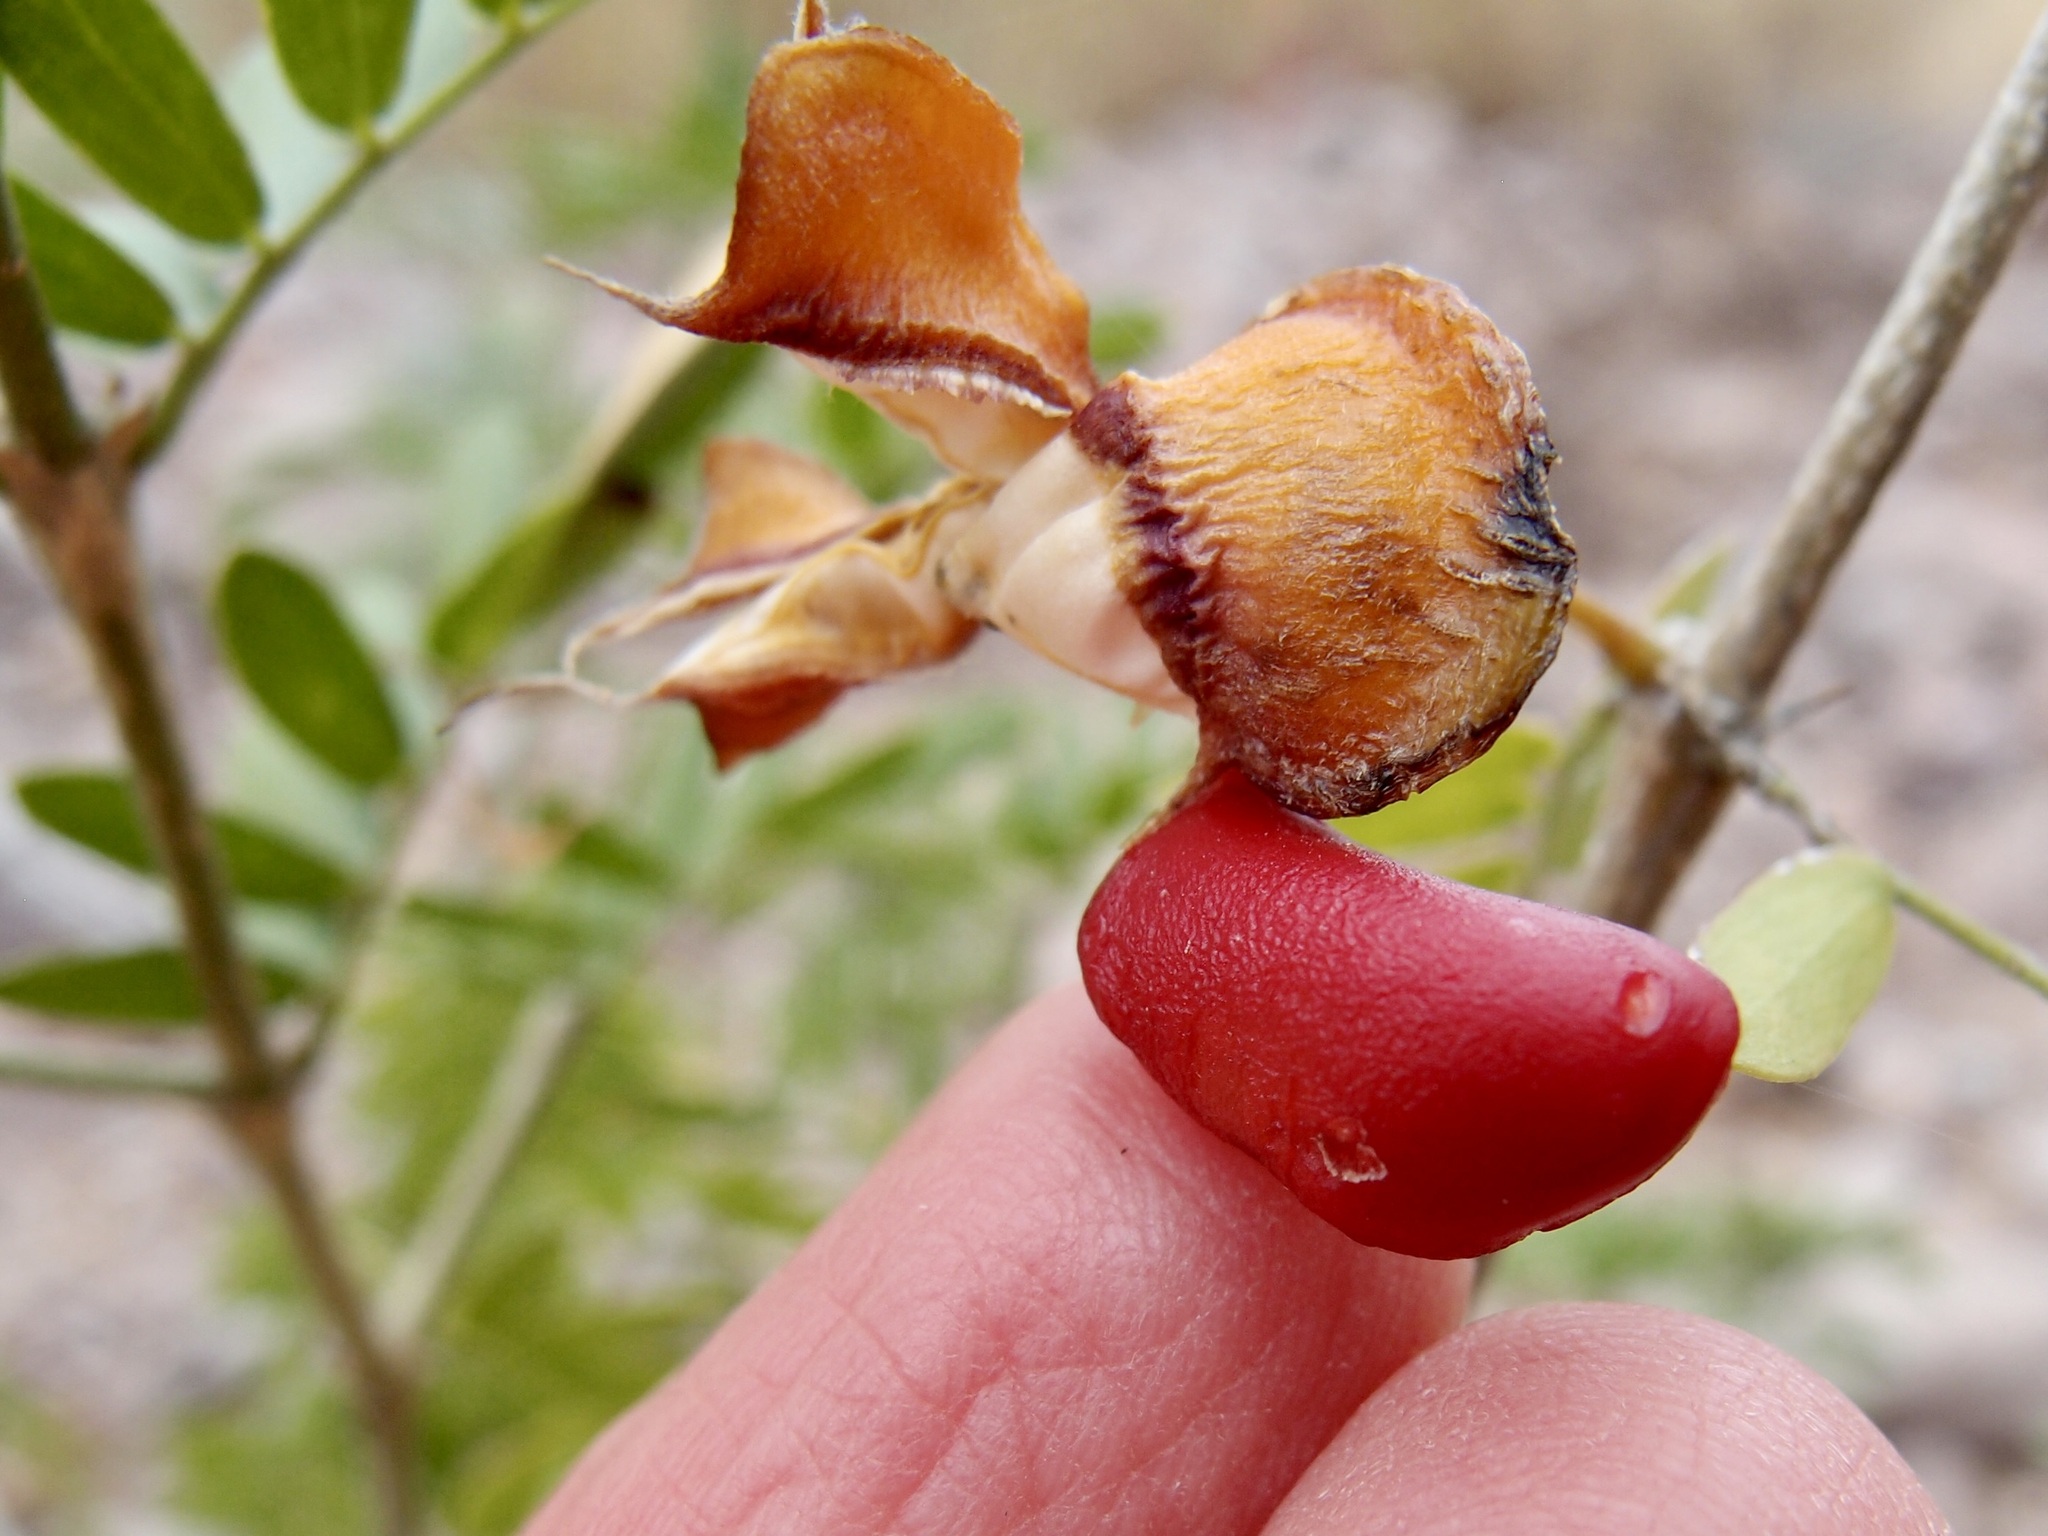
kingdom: Plantae
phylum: Tracheophyta
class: Magnoliopsida
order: Zygophyllales
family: Zygophyllaceae
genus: Guaiacum
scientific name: Guaiacum coulteri
